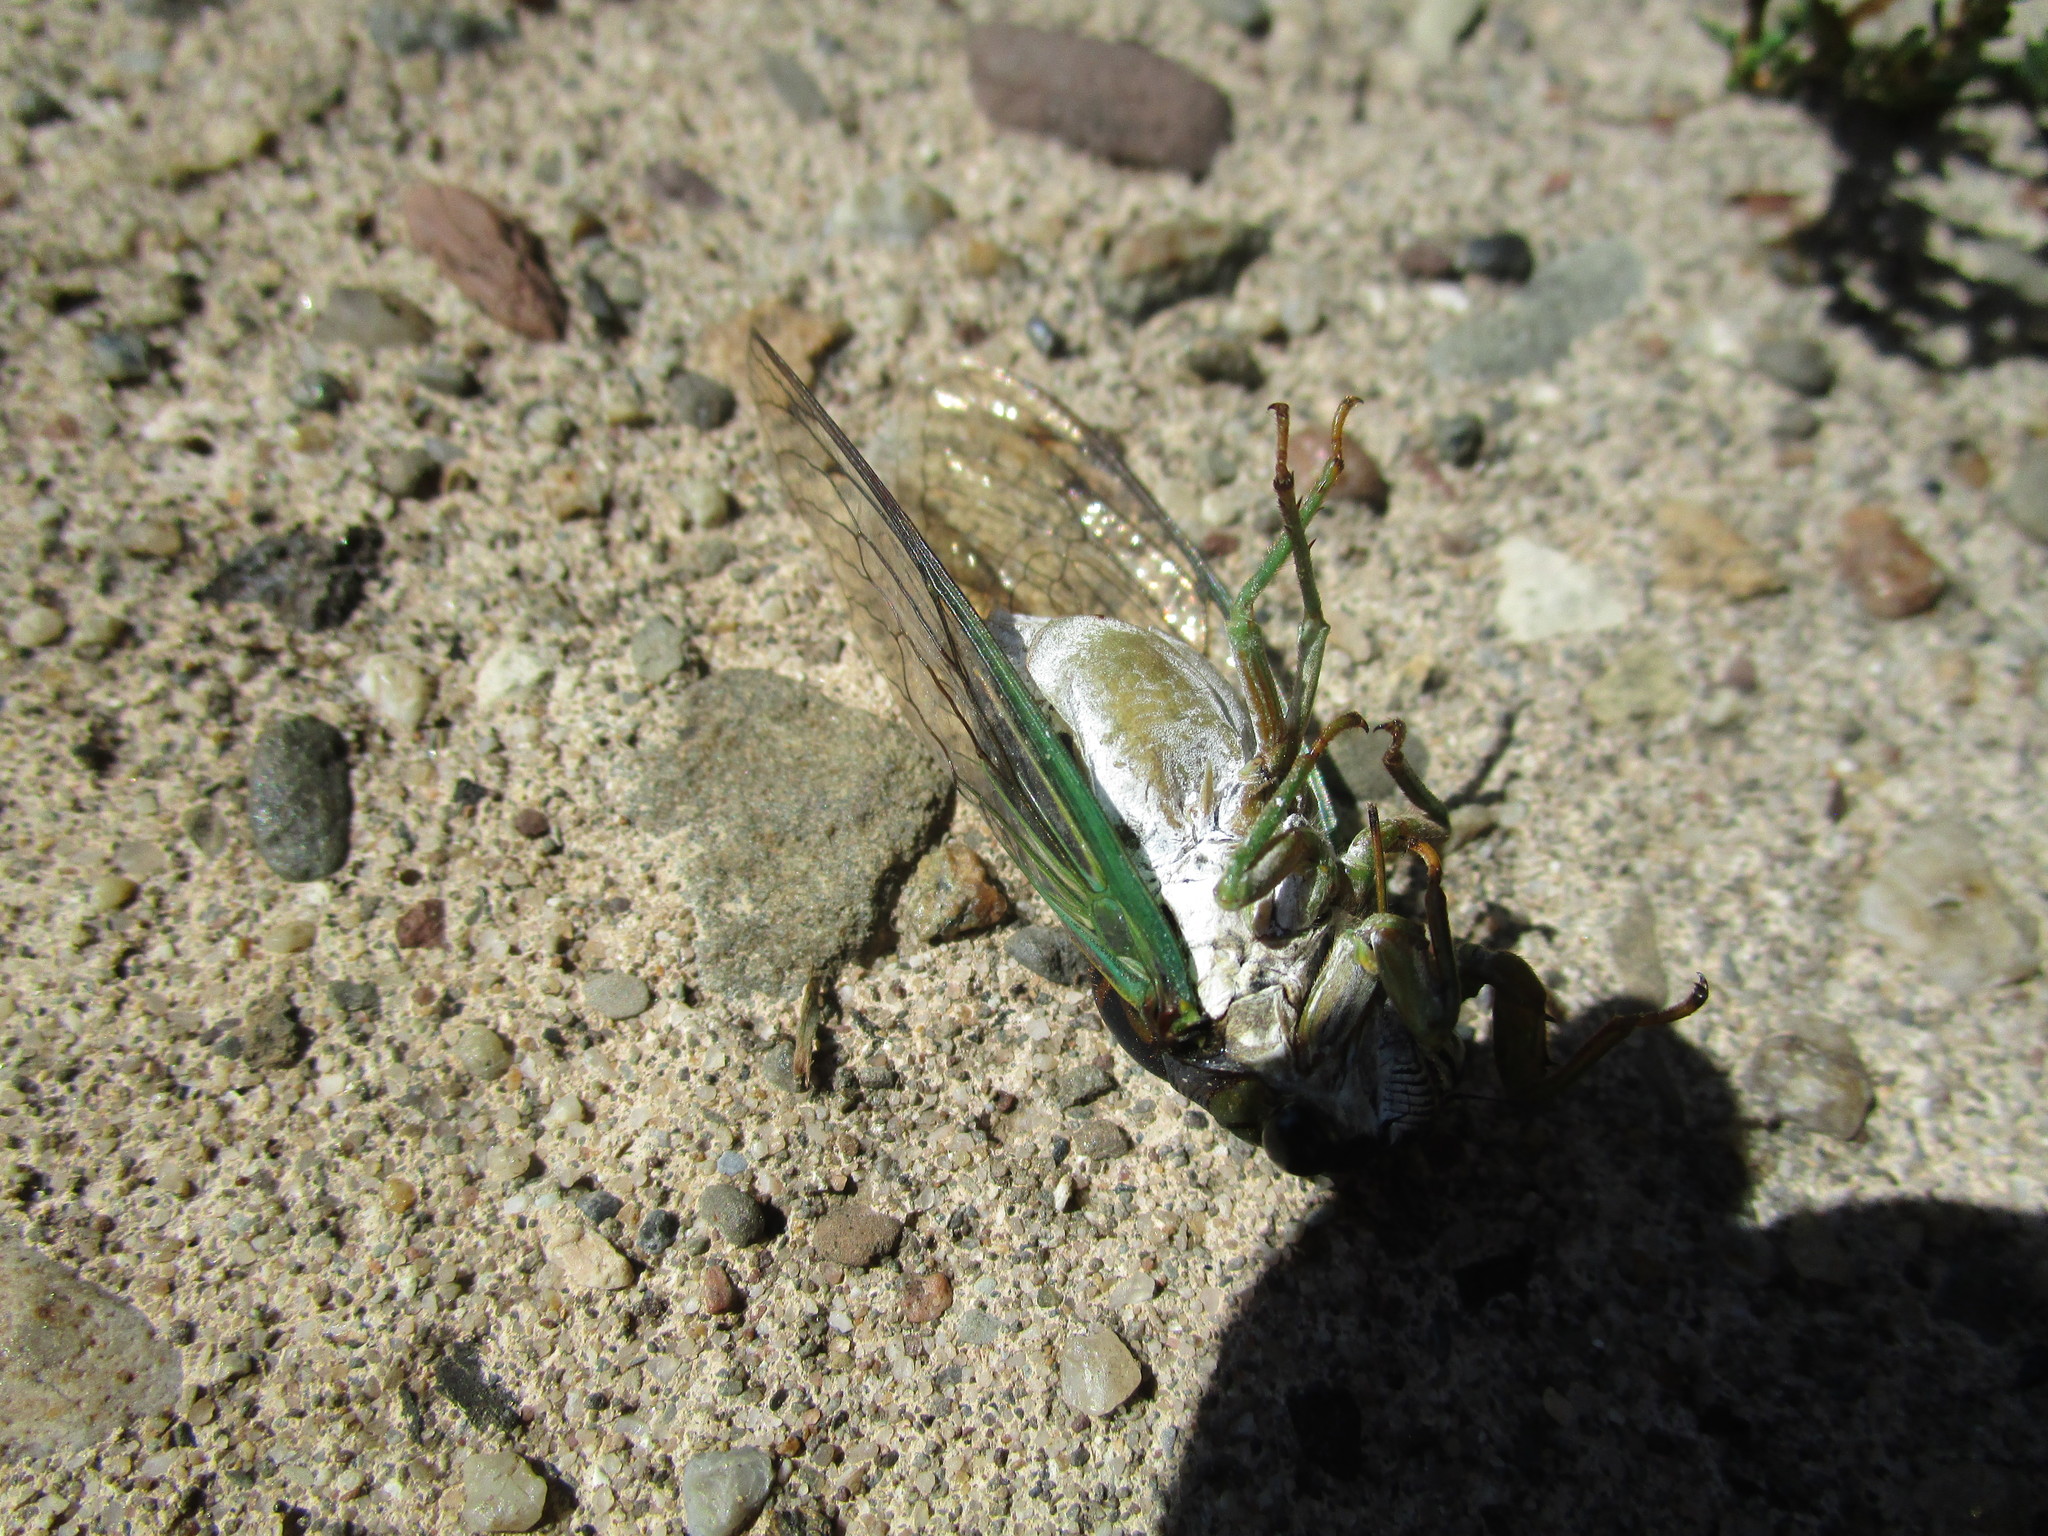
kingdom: Animalia
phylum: Arthropoda
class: Insecta
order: Hemiptera
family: Cicadidae
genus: Neotibicen
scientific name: Neotibicen tibicen
